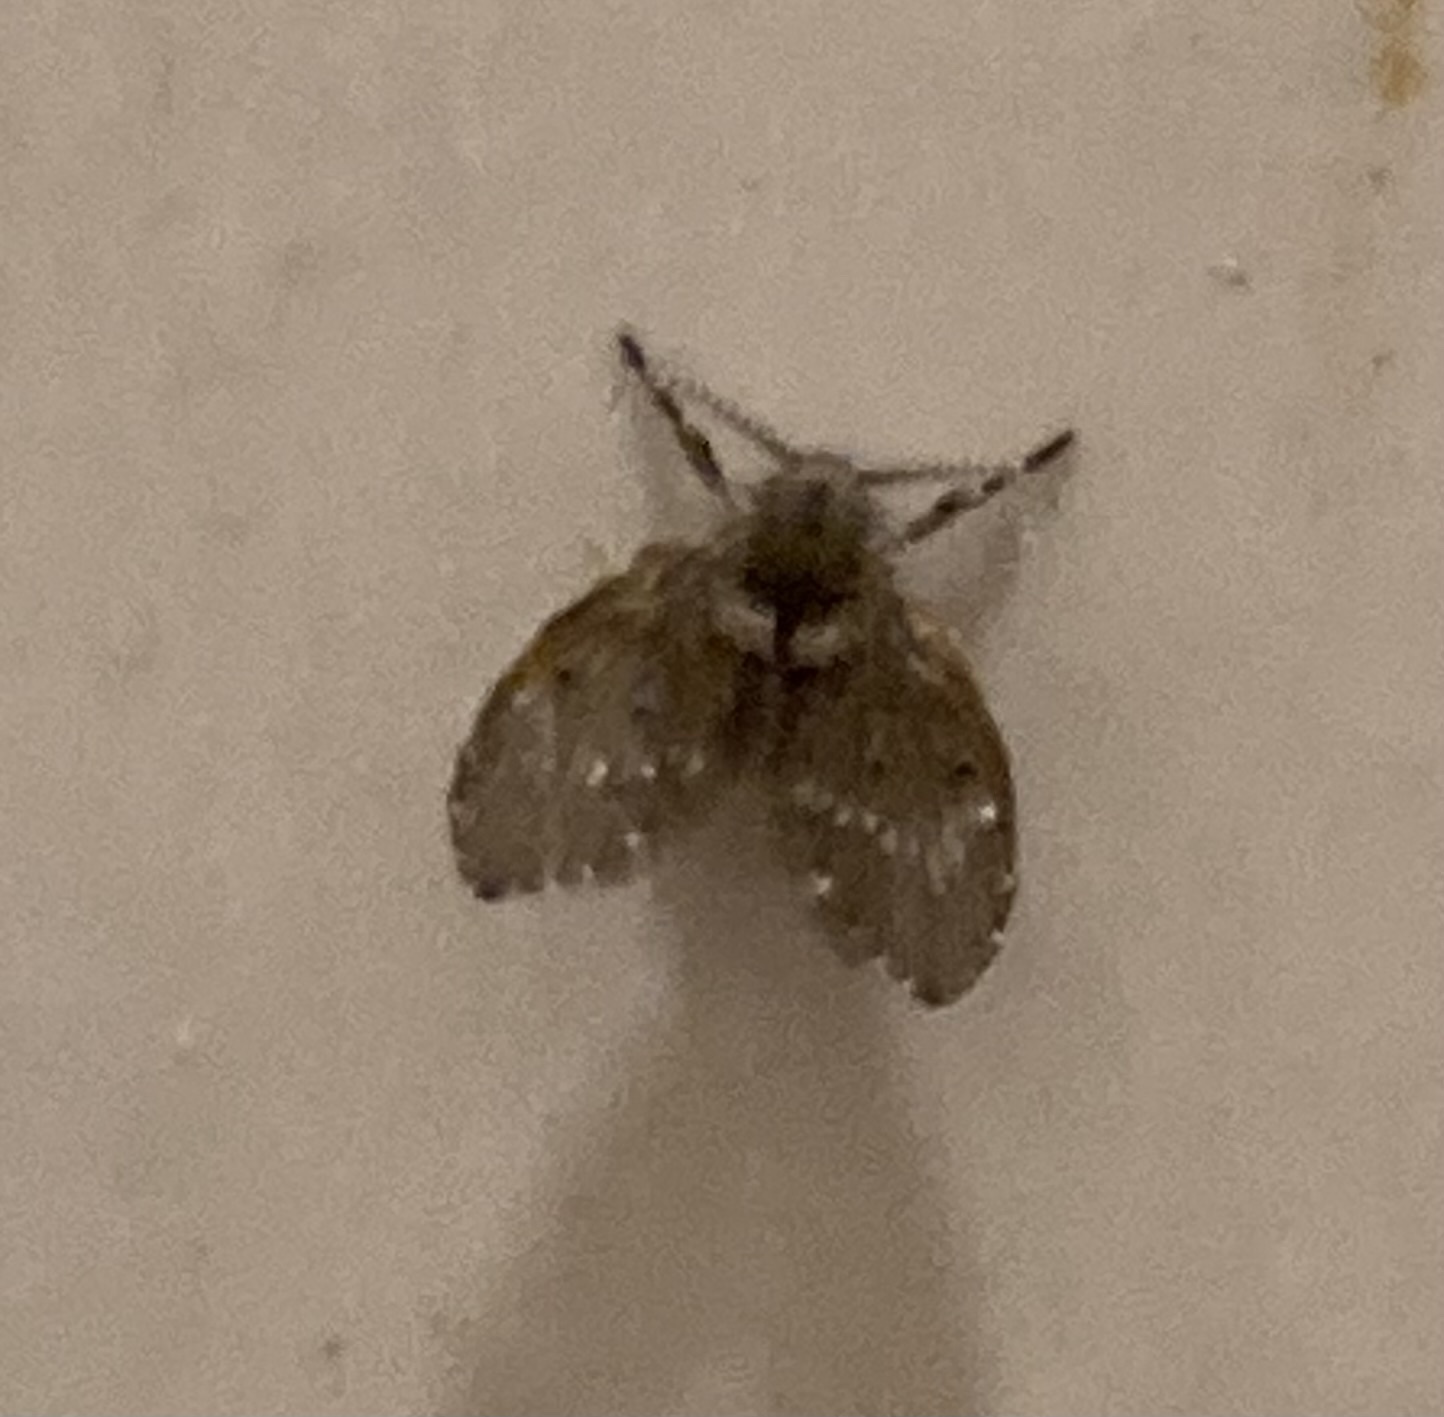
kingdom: Animalia
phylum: Arthropoda
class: Insecta
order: Diptera
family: Psychodidae
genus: Clogmia
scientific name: Clogmia albipunctatus
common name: White-spotted moth fly
